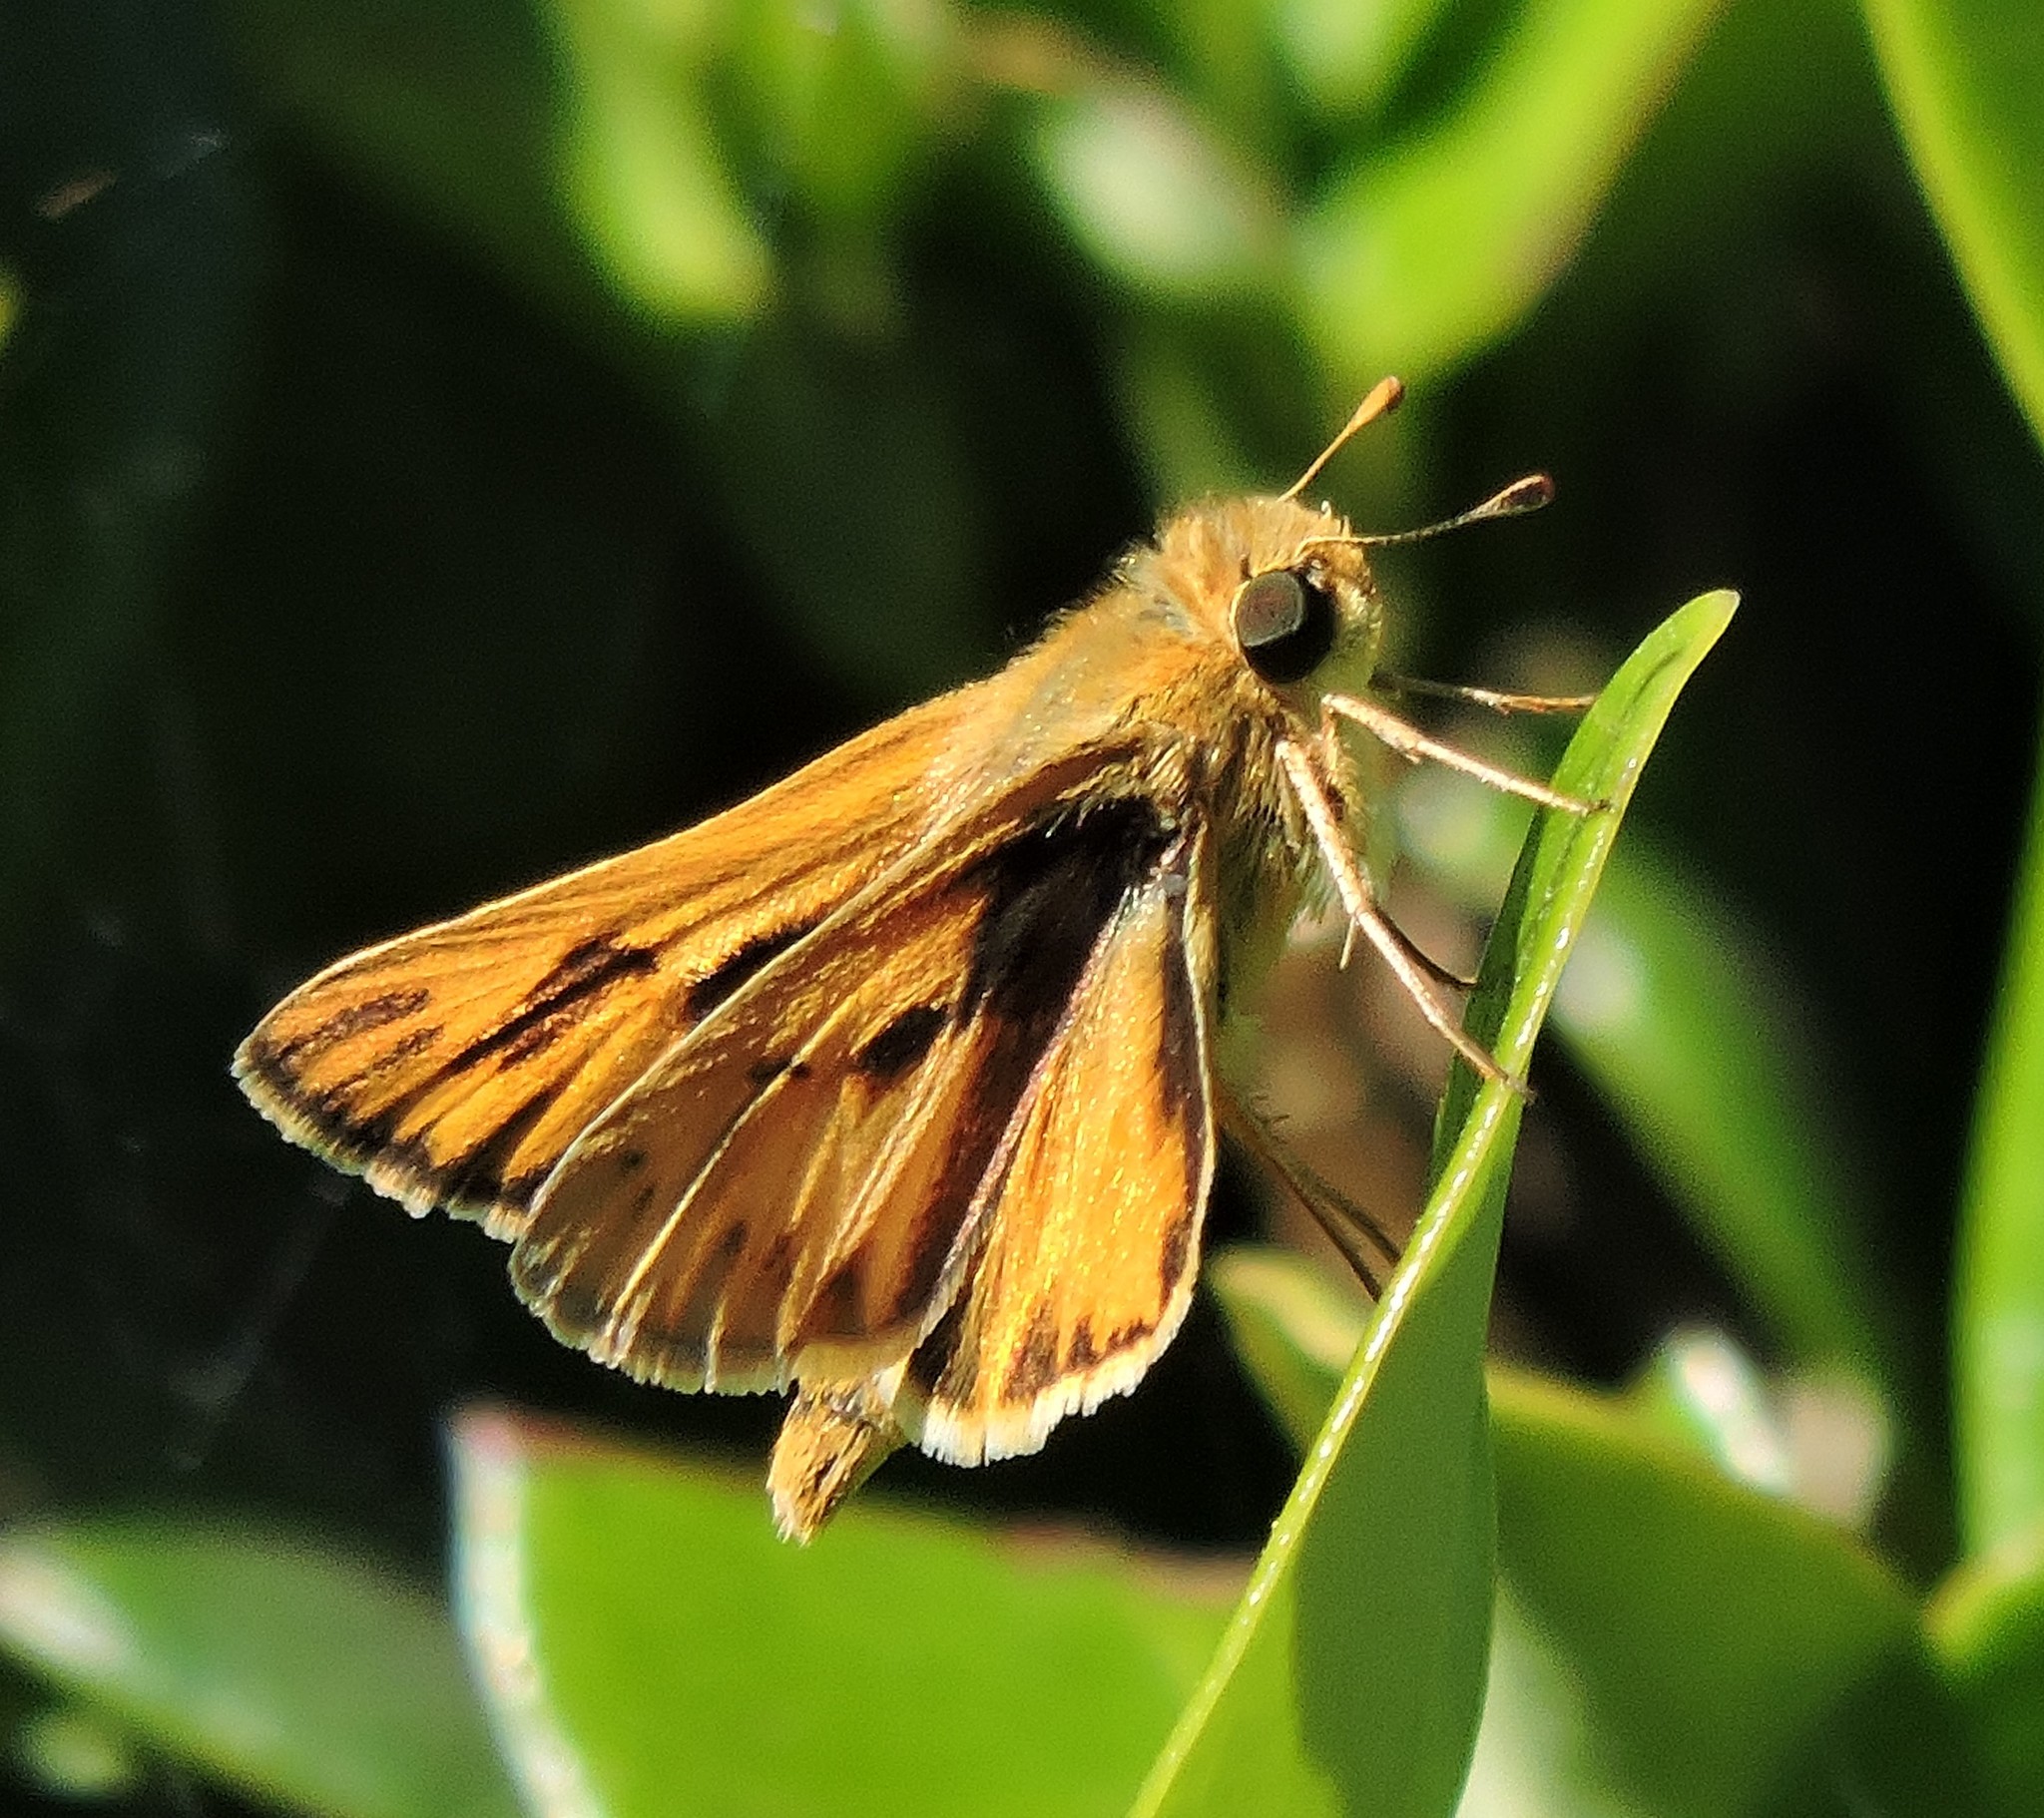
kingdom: Animalia
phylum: Arthropoda
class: Insecta
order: Lepidoptera
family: Hesperiidae
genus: Hylephila
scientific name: Hylephila phyleus
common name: Fiery skipper
